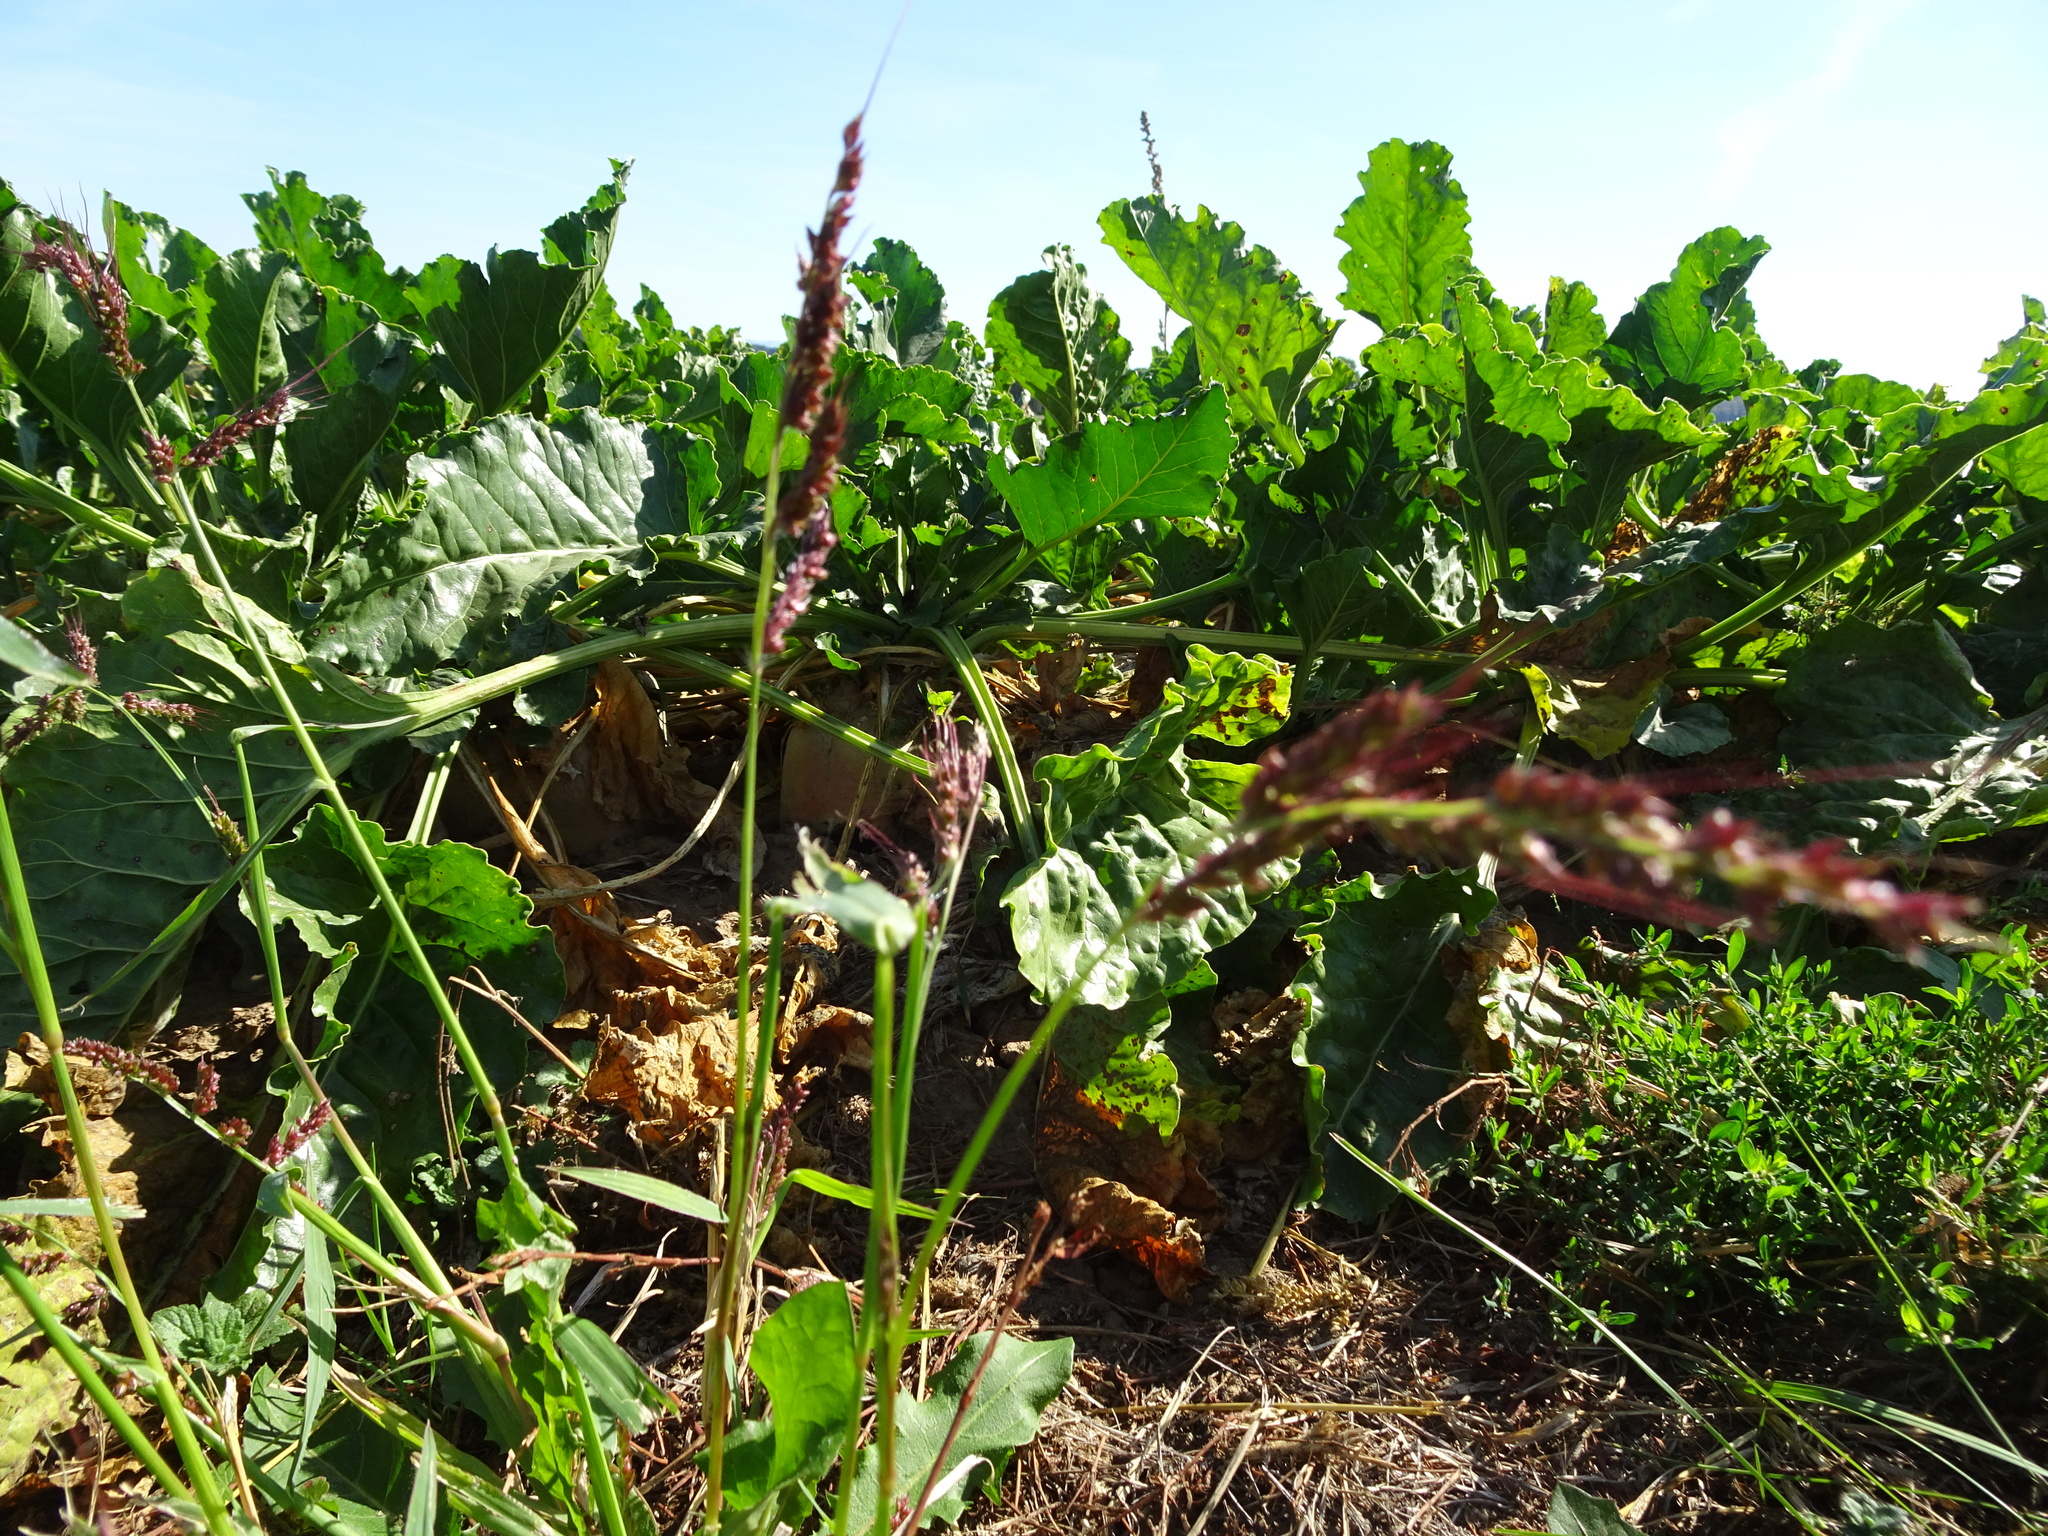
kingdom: Plantae
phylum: Tracheophyta
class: Liliopsida
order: Poales
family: Poaceae
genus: Echinochloa
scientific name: Echinochloa crus-galli
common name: Cockspur
